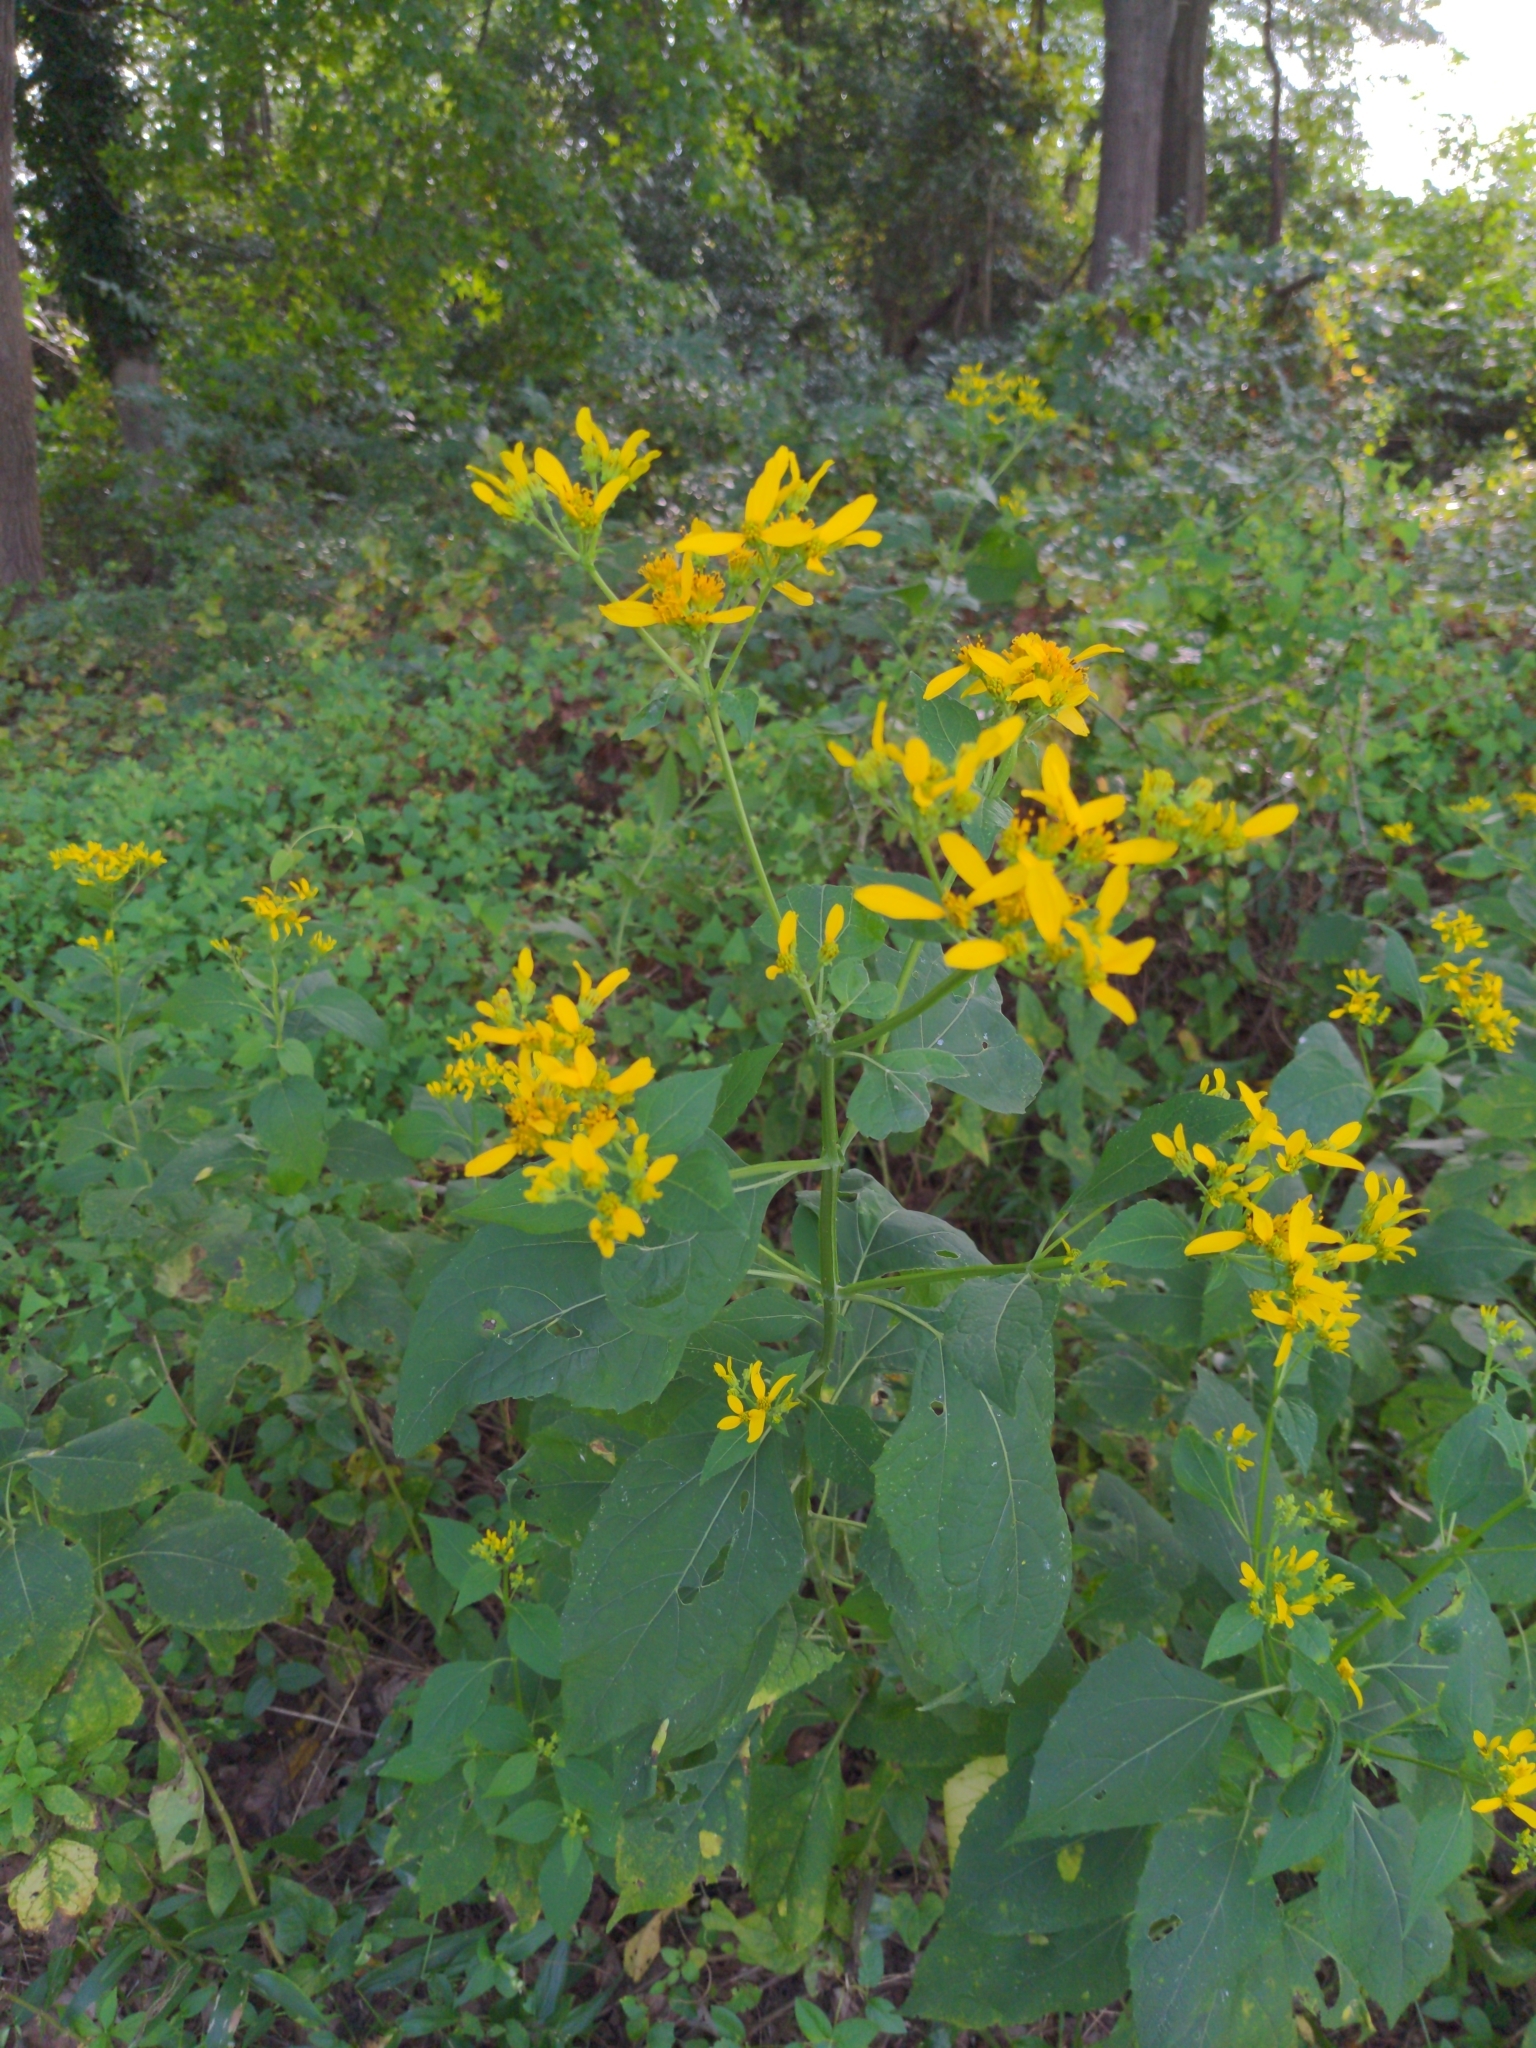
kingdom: Plantae
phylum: Tracheophyta
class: Magnoliopsida
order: Asterales
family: Asteraceae
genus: Verbesina
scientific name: Verbesina occidentalis
